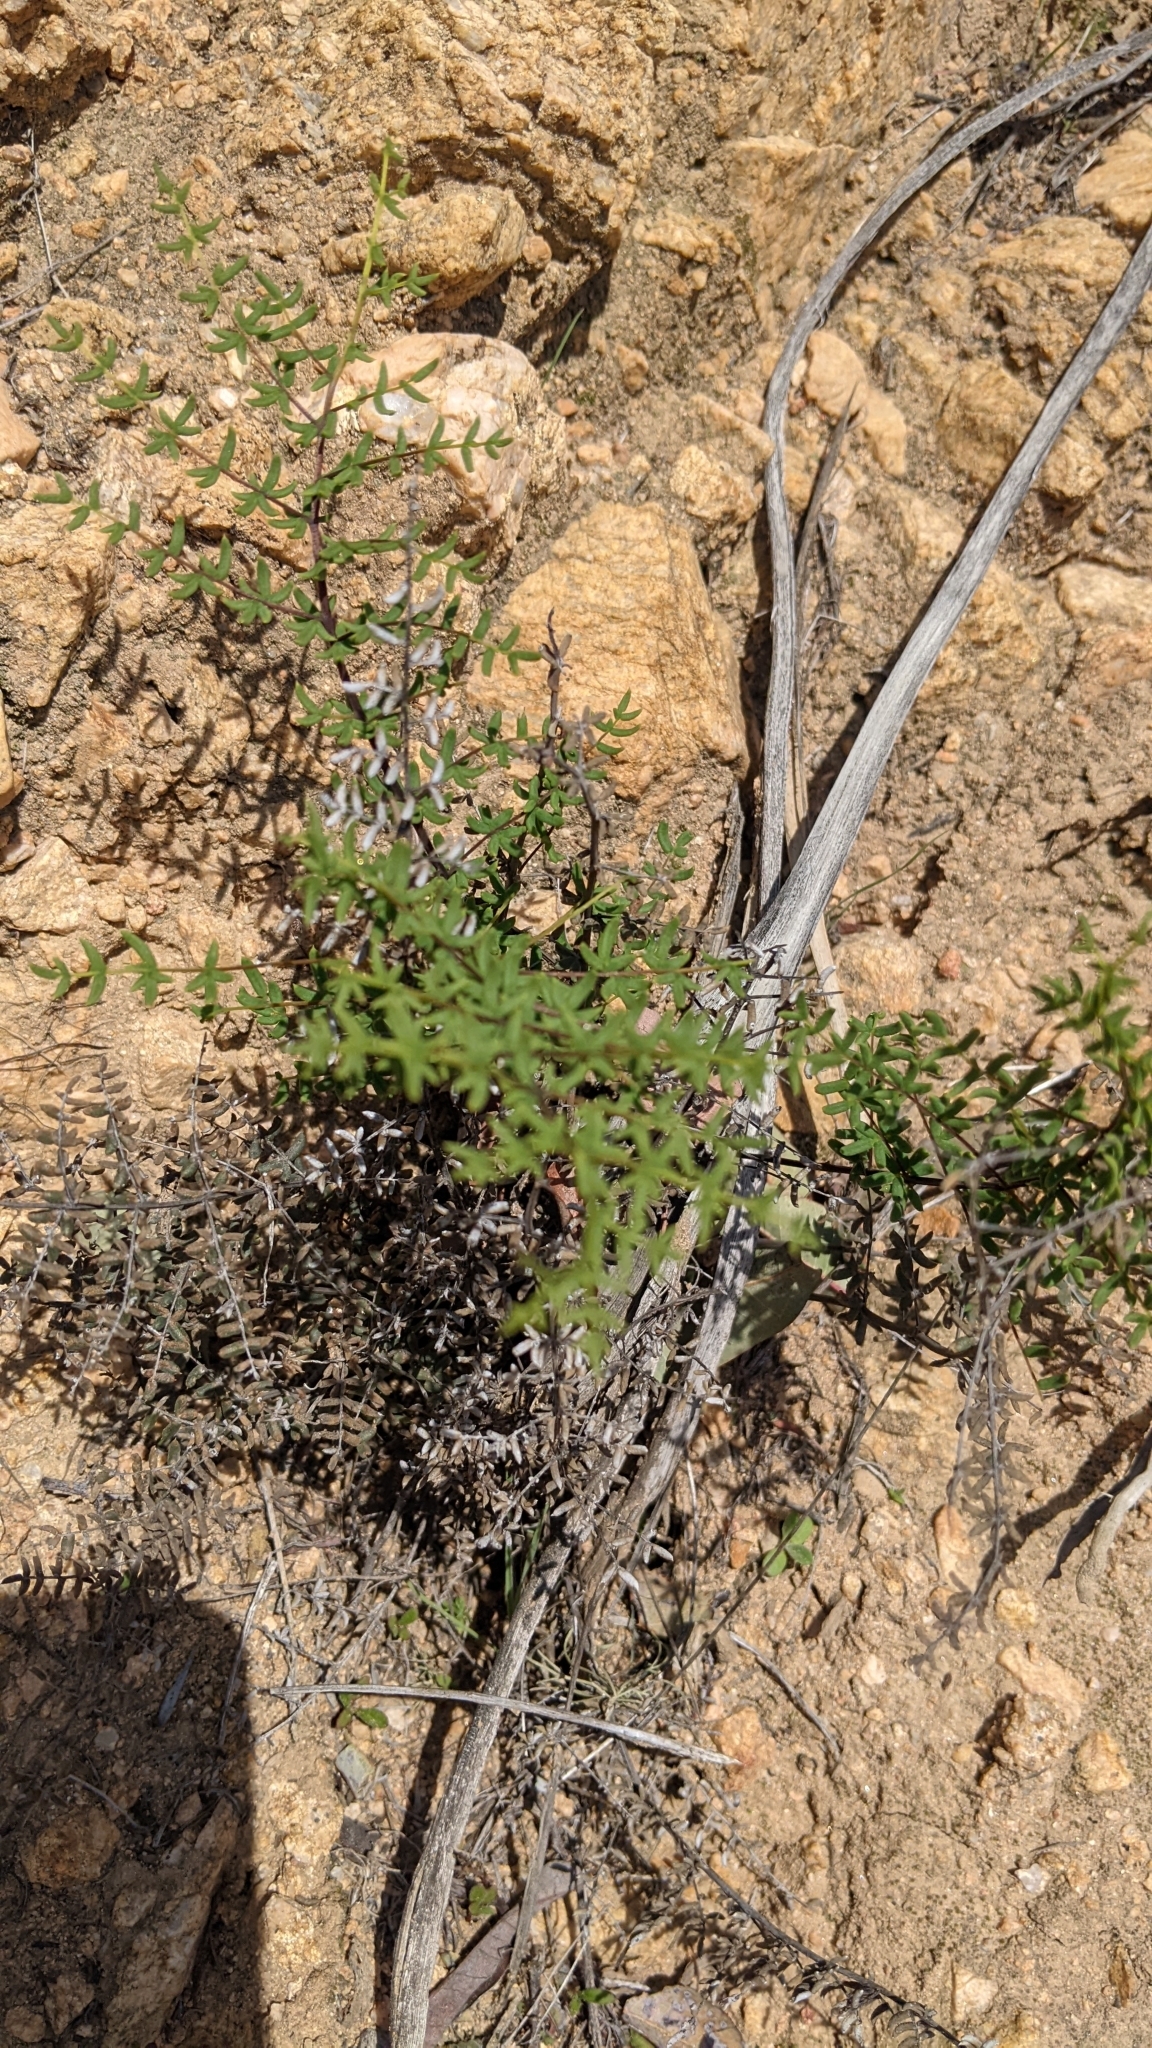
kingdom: Plantae
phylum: Tracheophyta
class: Polypodiopsida
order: Polypodiales
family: Pteridaceae
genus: Pellaea
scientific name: Pellaea mucronata
